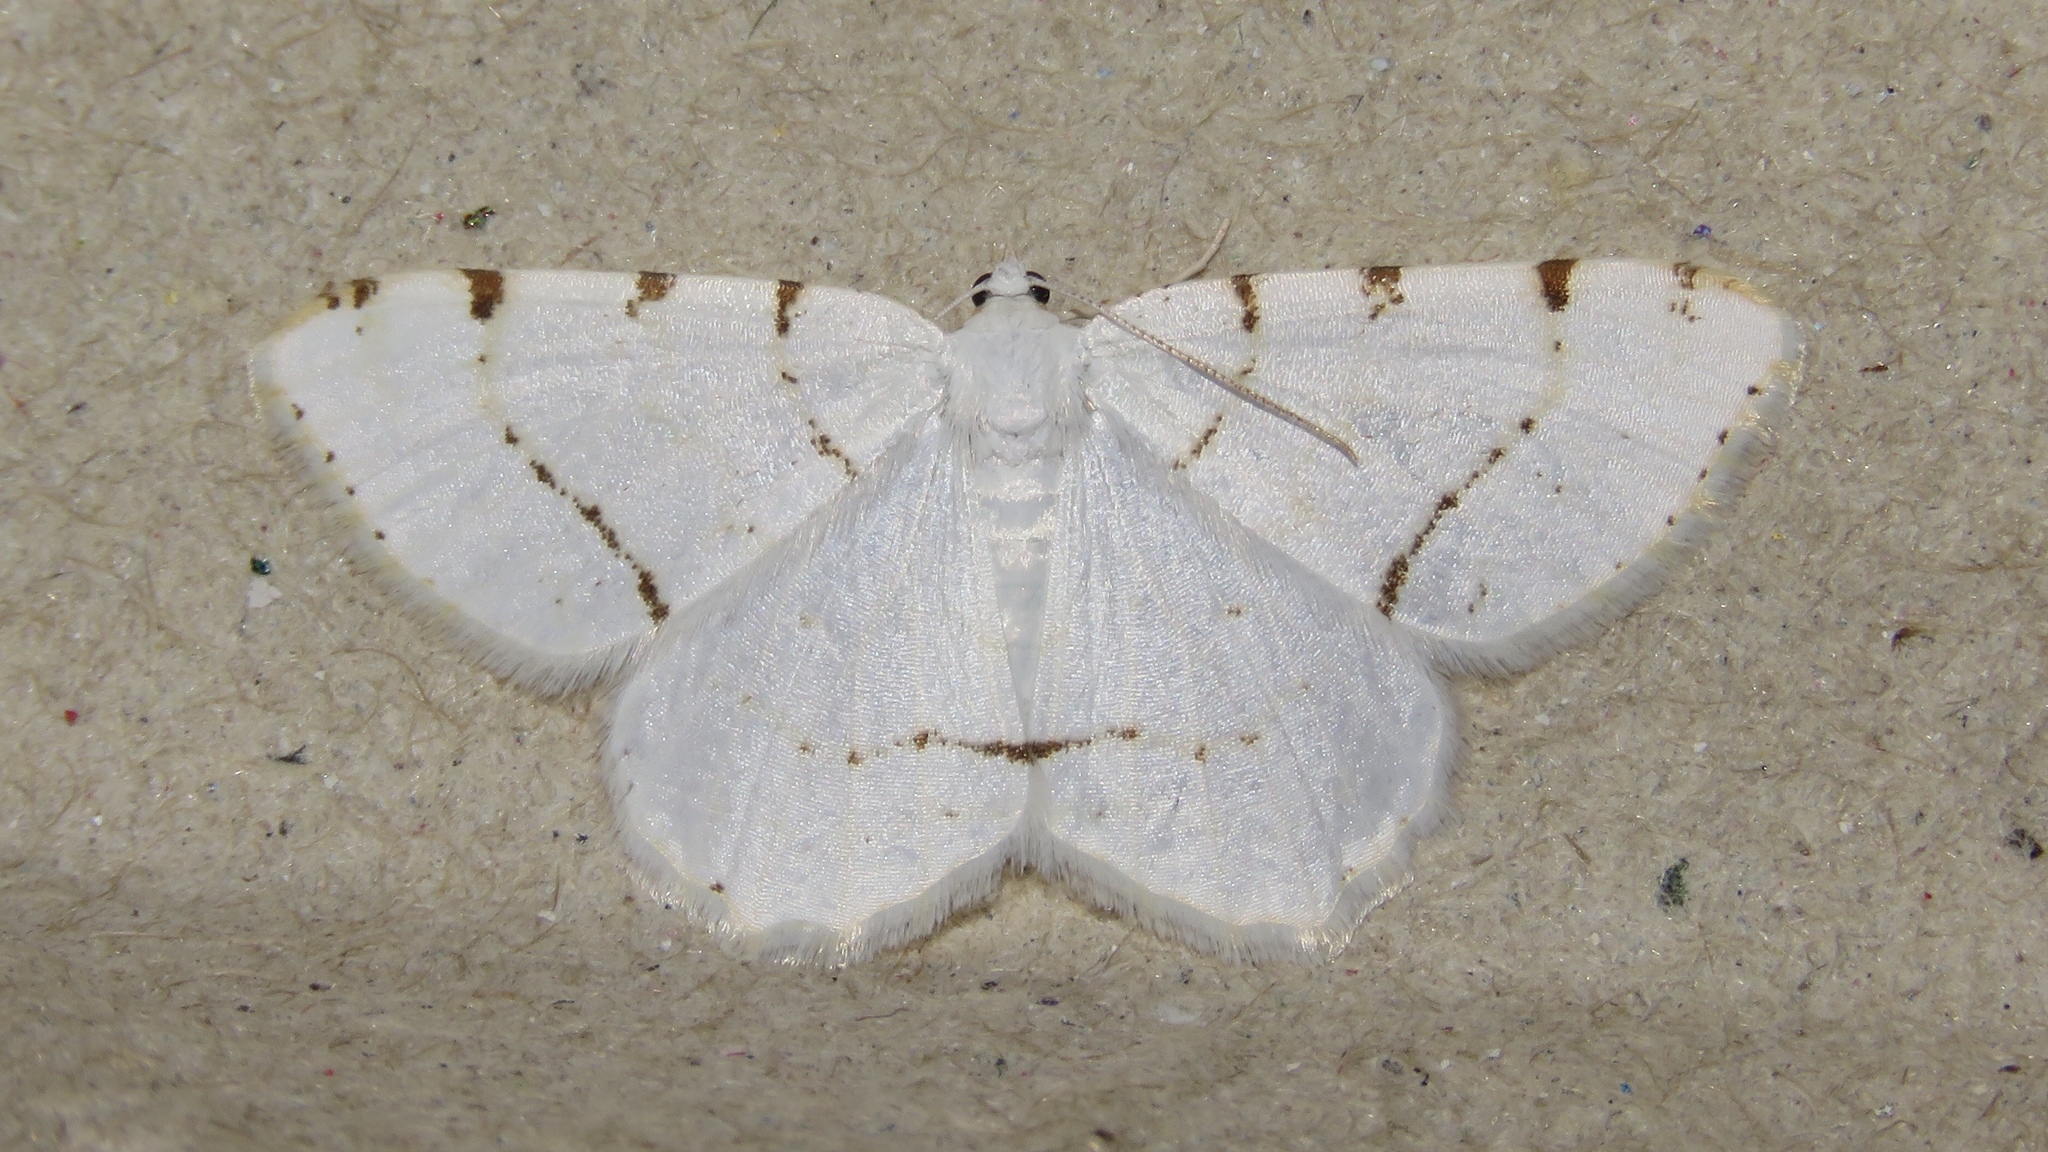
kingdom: Animalia
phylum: Arthropoda
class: Insecta
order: Lepidoptera
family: Geometridae
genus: Macaria
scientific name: Macaria pustularia
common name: Lesser maple spanworm moth
